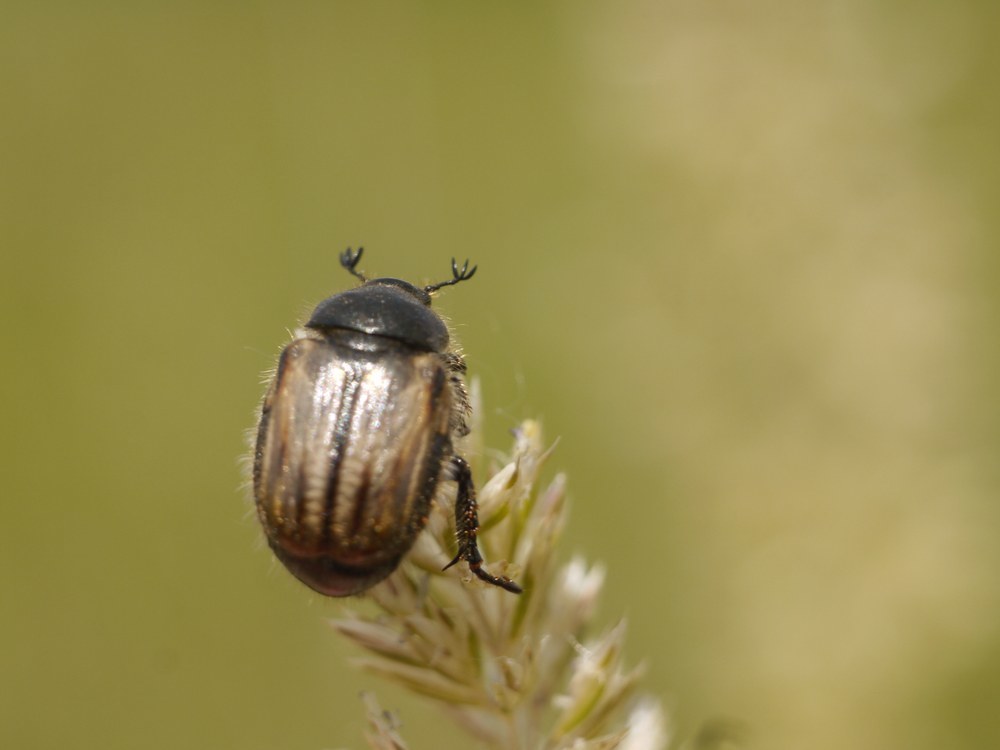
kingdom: Animalia
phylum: Arthropoda
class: Insecta
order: Coleoptera
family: Scarabaeidae
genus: Blitopertha
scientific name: Blitopertha lineolata
